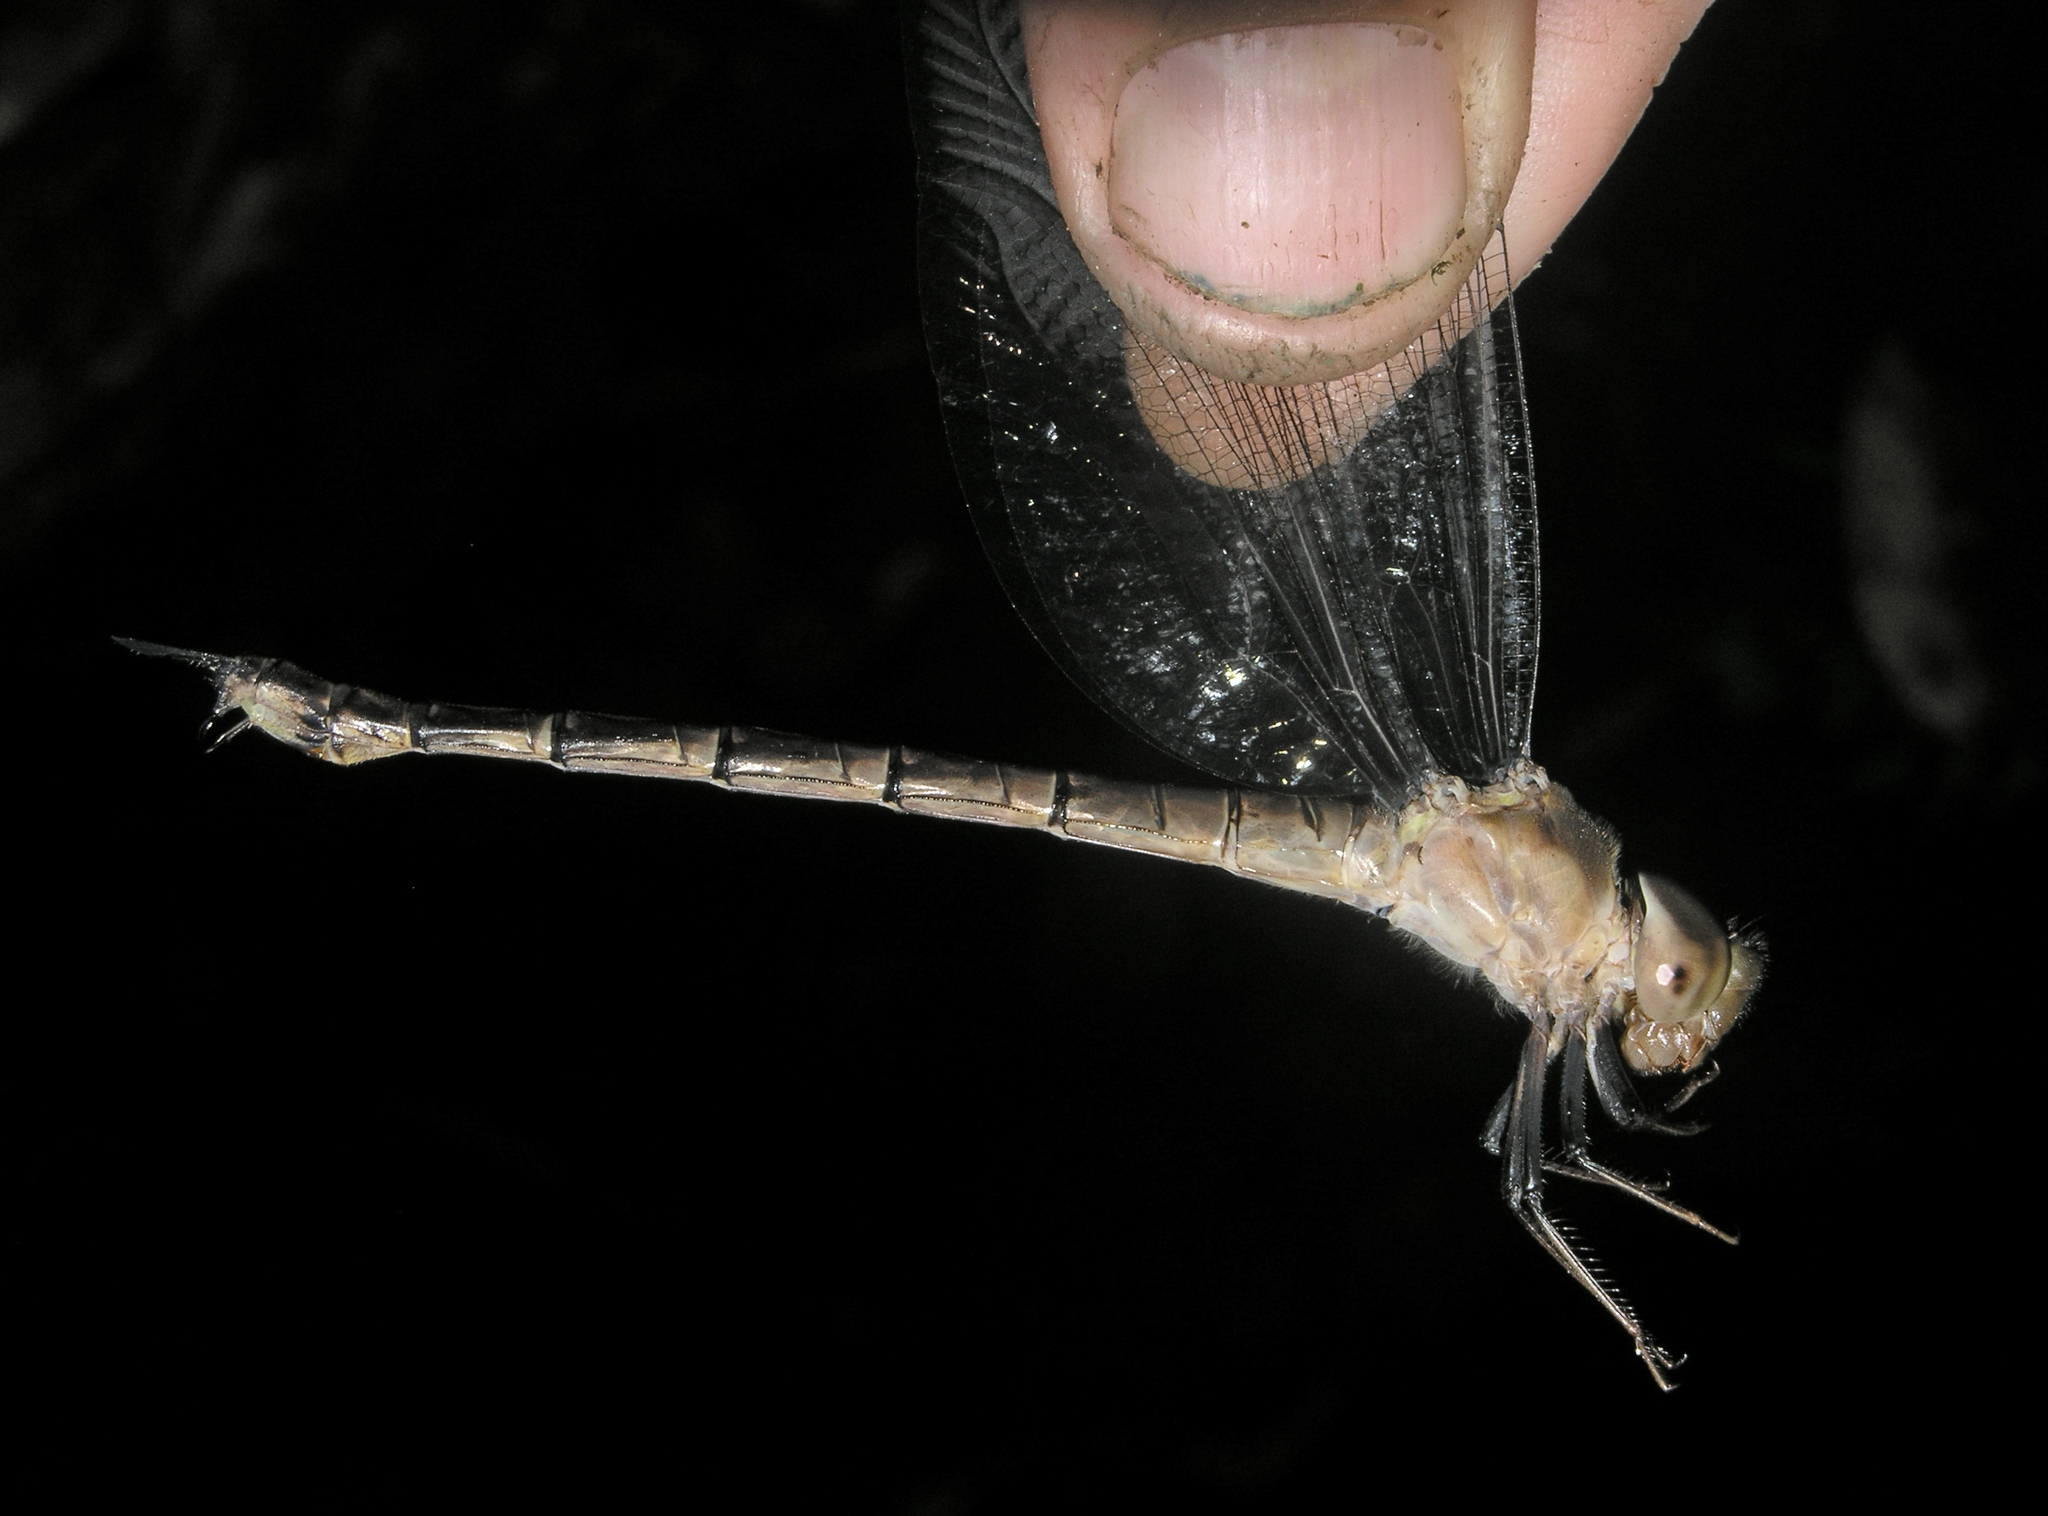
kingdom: Animalia
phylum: Arthropoda
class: Insecta
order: Odonata
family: Aeshnidae
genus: Gynacantha
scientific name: Gynacantha subinterrupta
